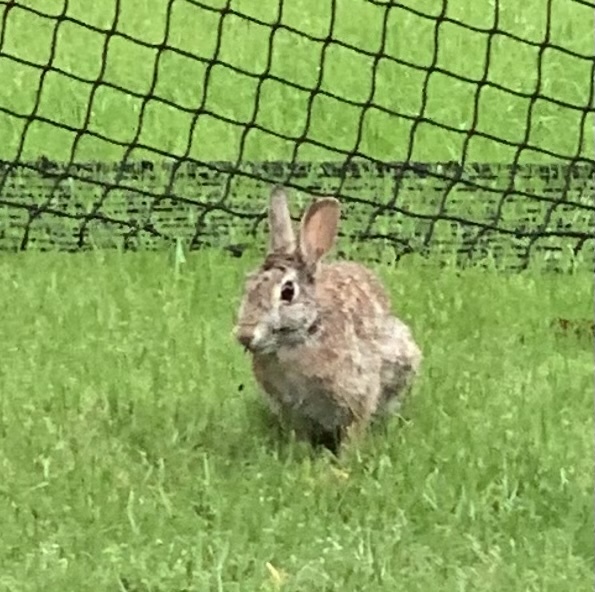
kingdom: Animalia
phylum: Chordata
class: Mammalia
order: Lagomorpha
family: Leporidae
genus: Sylvilagus
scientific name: Sylvilagus floridanus
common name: Eastern cottontail
